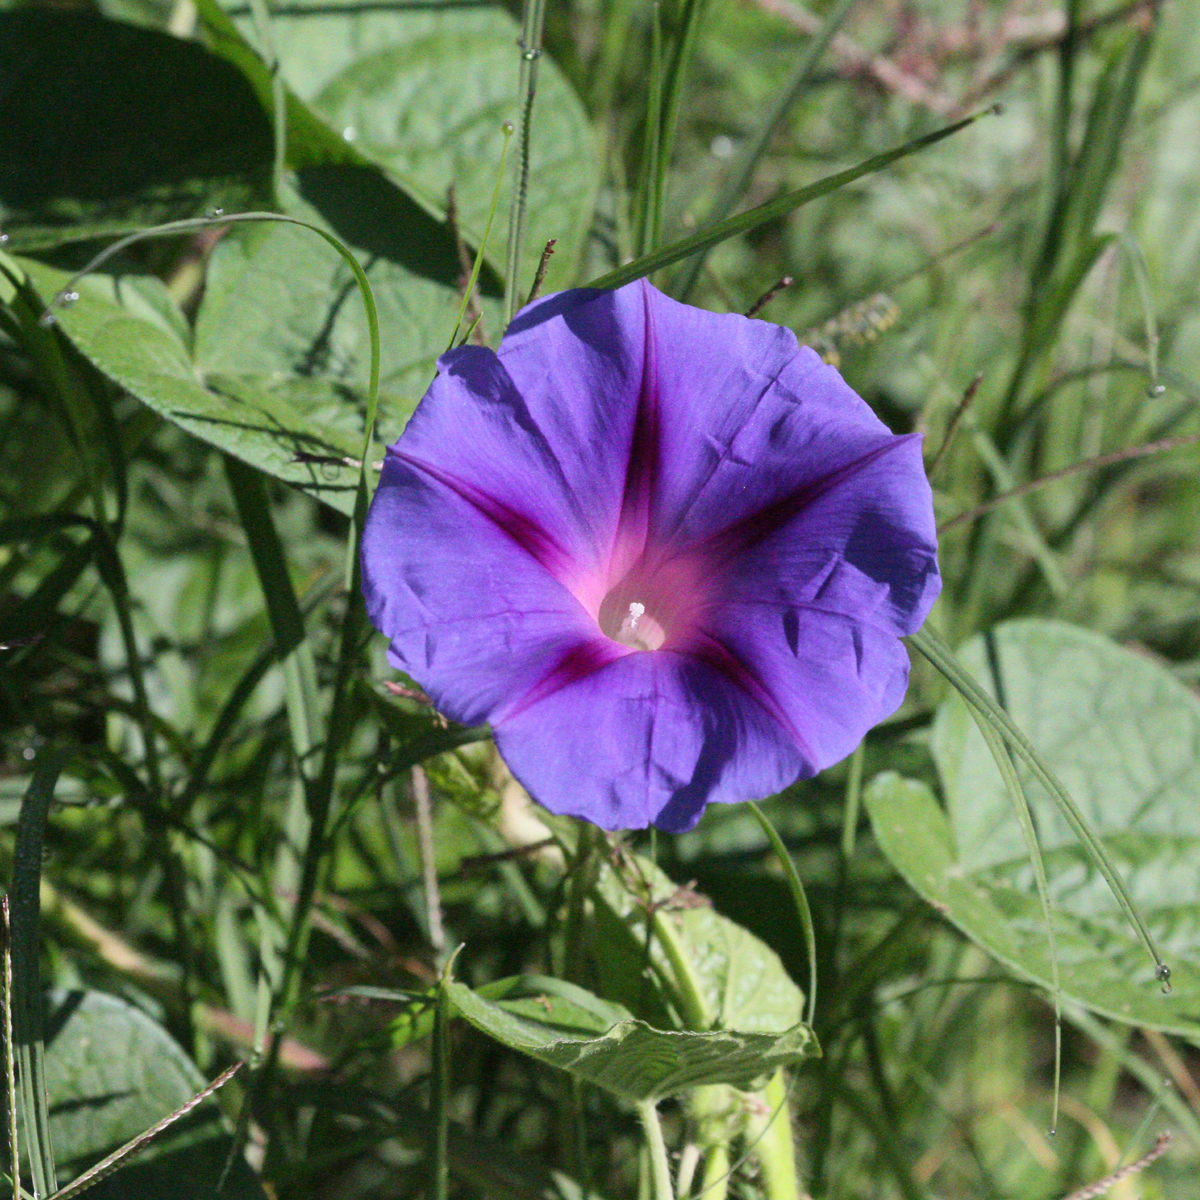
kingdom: Plantae
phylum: Tracheophyta
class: Magnoliopsida
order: Solanales
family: Convolvulaceae
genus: Ipomoea
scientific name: Ipomoea purpurea
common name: Common morning-glory
